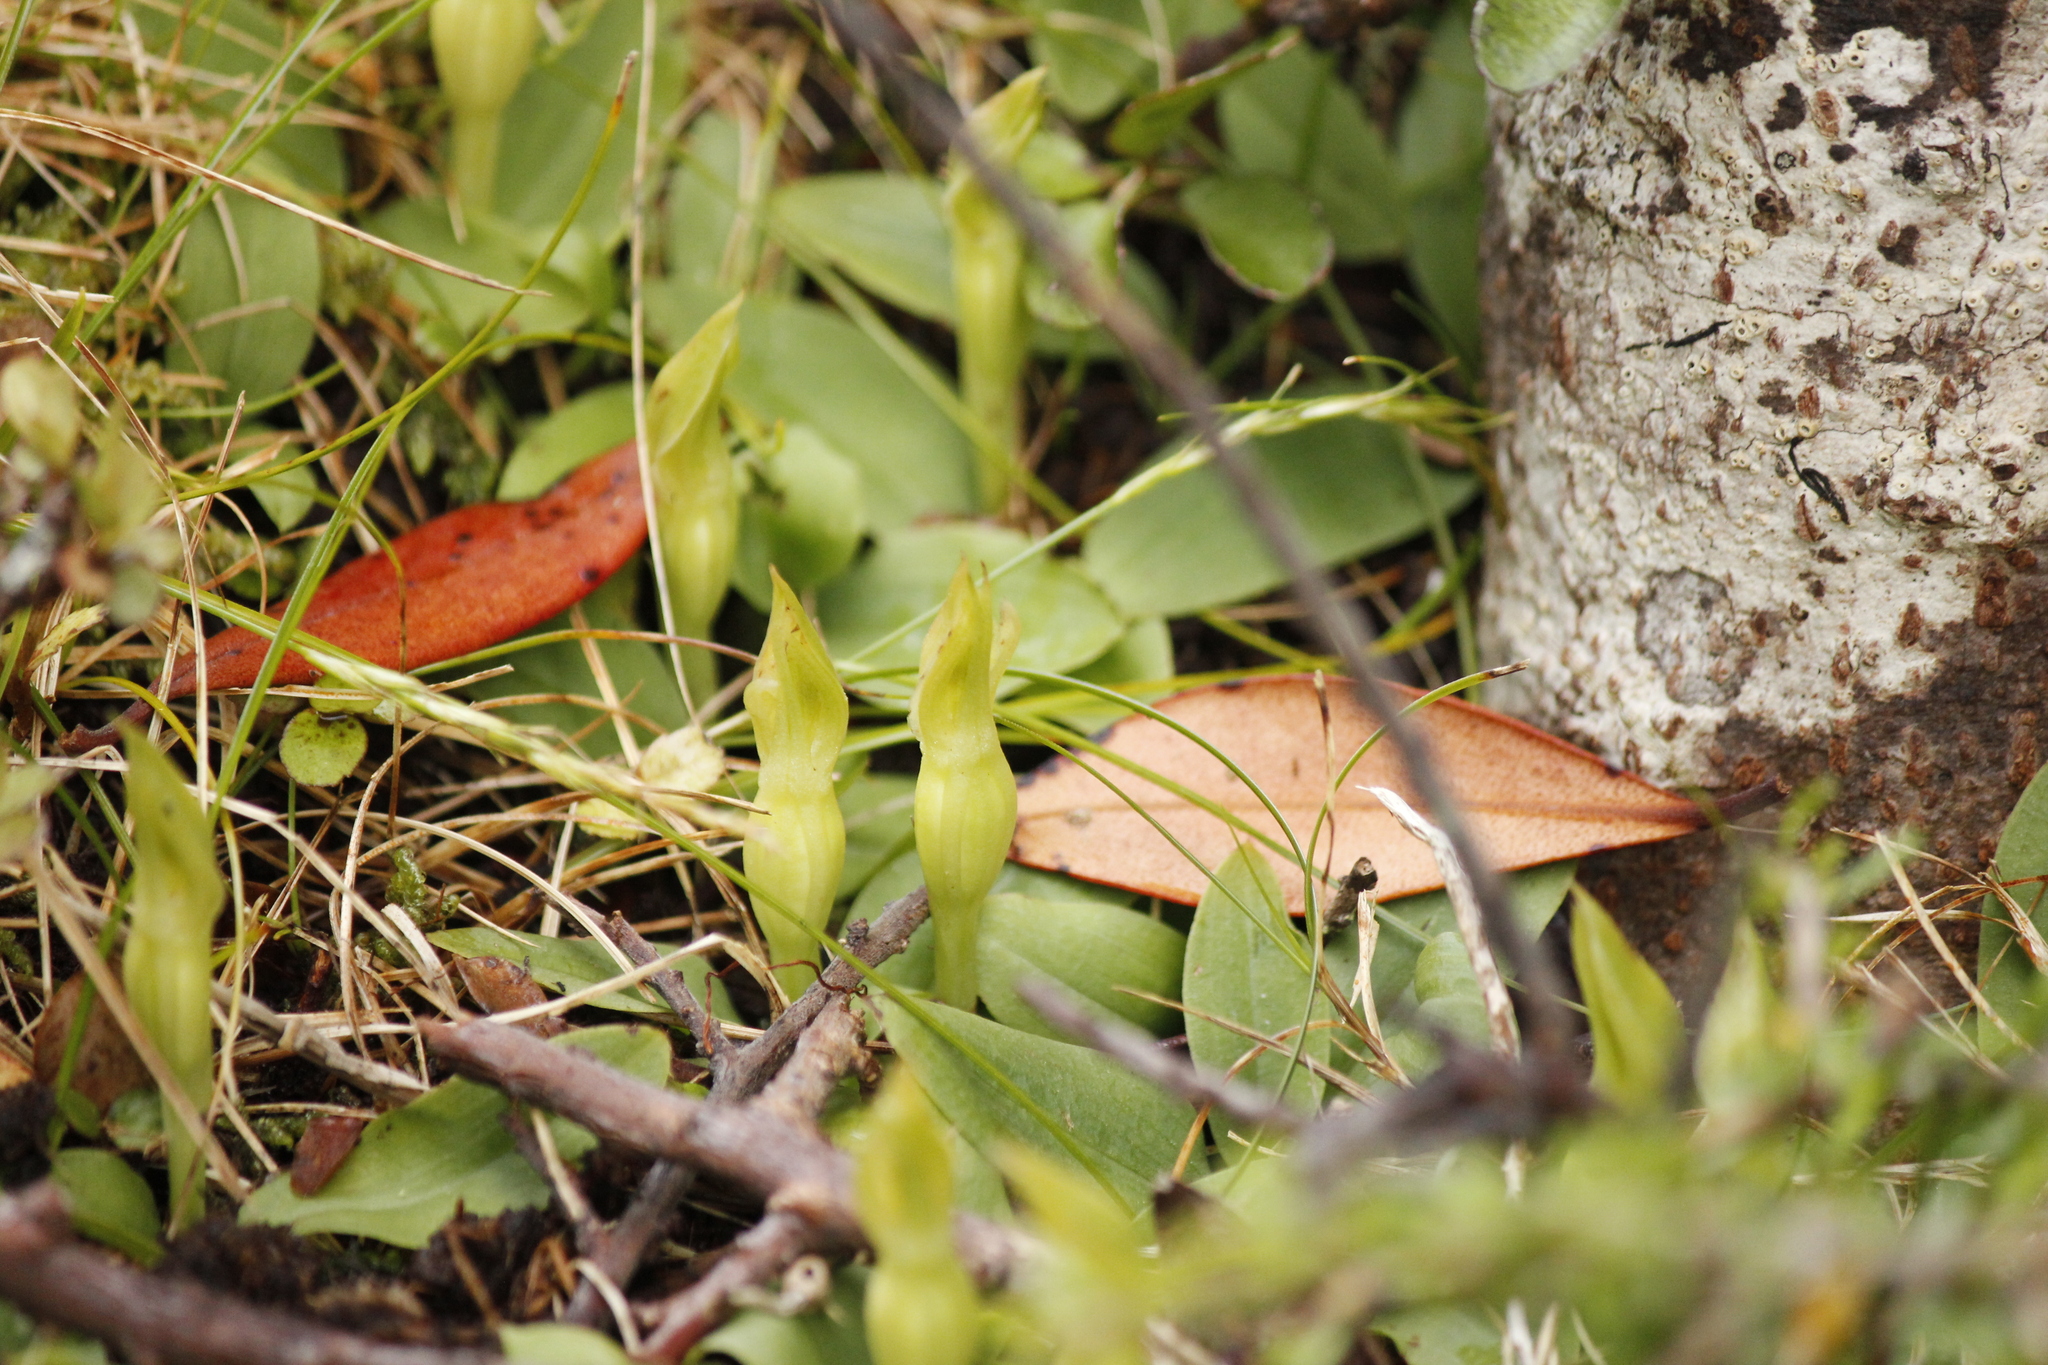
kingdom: Plantae
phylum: Tracheophyta
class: Liliopsida
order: Asparagales
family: Orchidaceae
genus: Chiloglottis
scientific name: Chiloglottis cornuta
